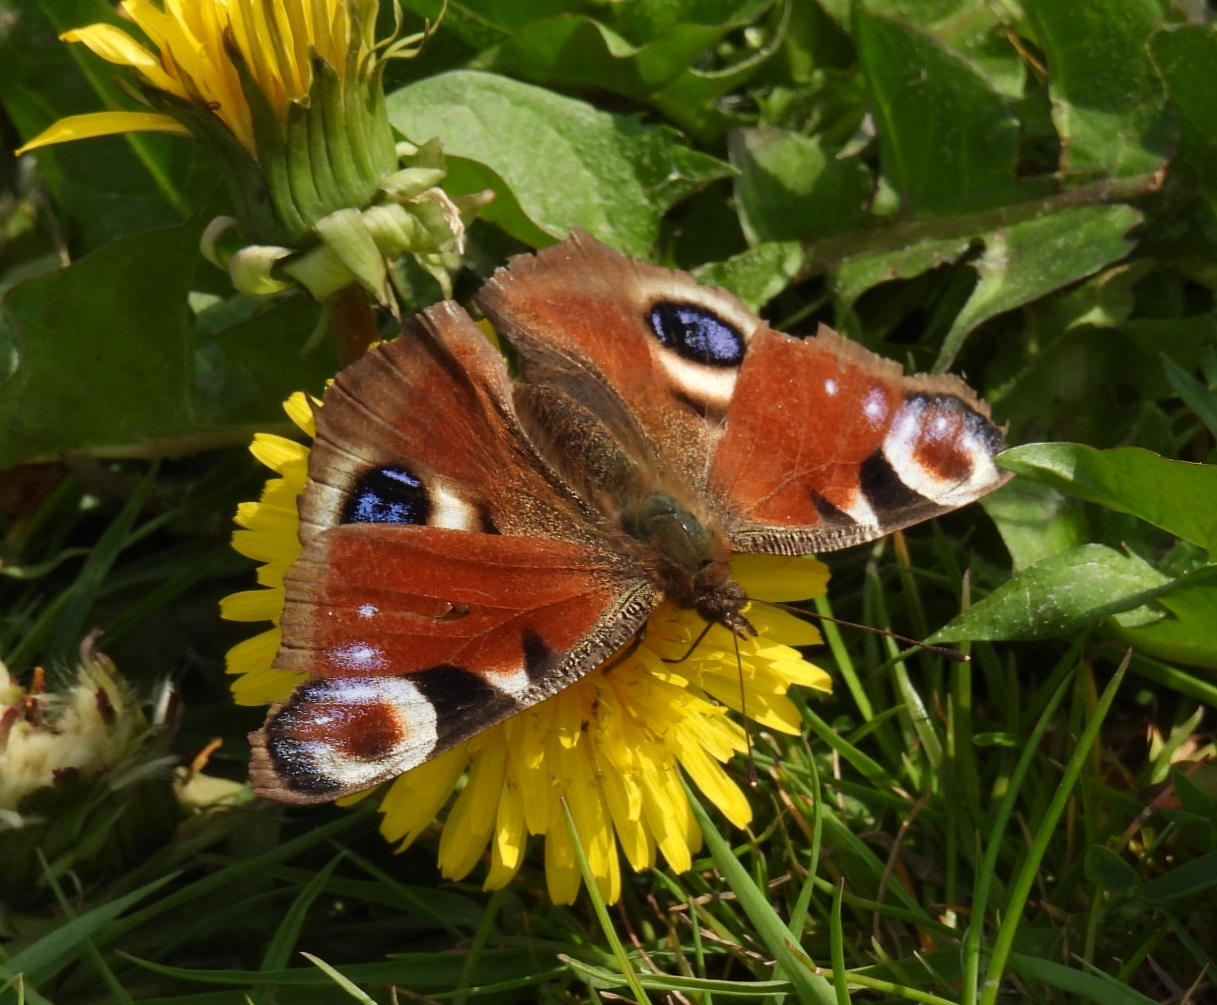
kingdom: Animalia
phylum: Arthropoda
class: Insecta
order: Lepidoptera
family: Nymphalidae
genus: Aglais
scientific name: Aglais io
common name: Peacock
